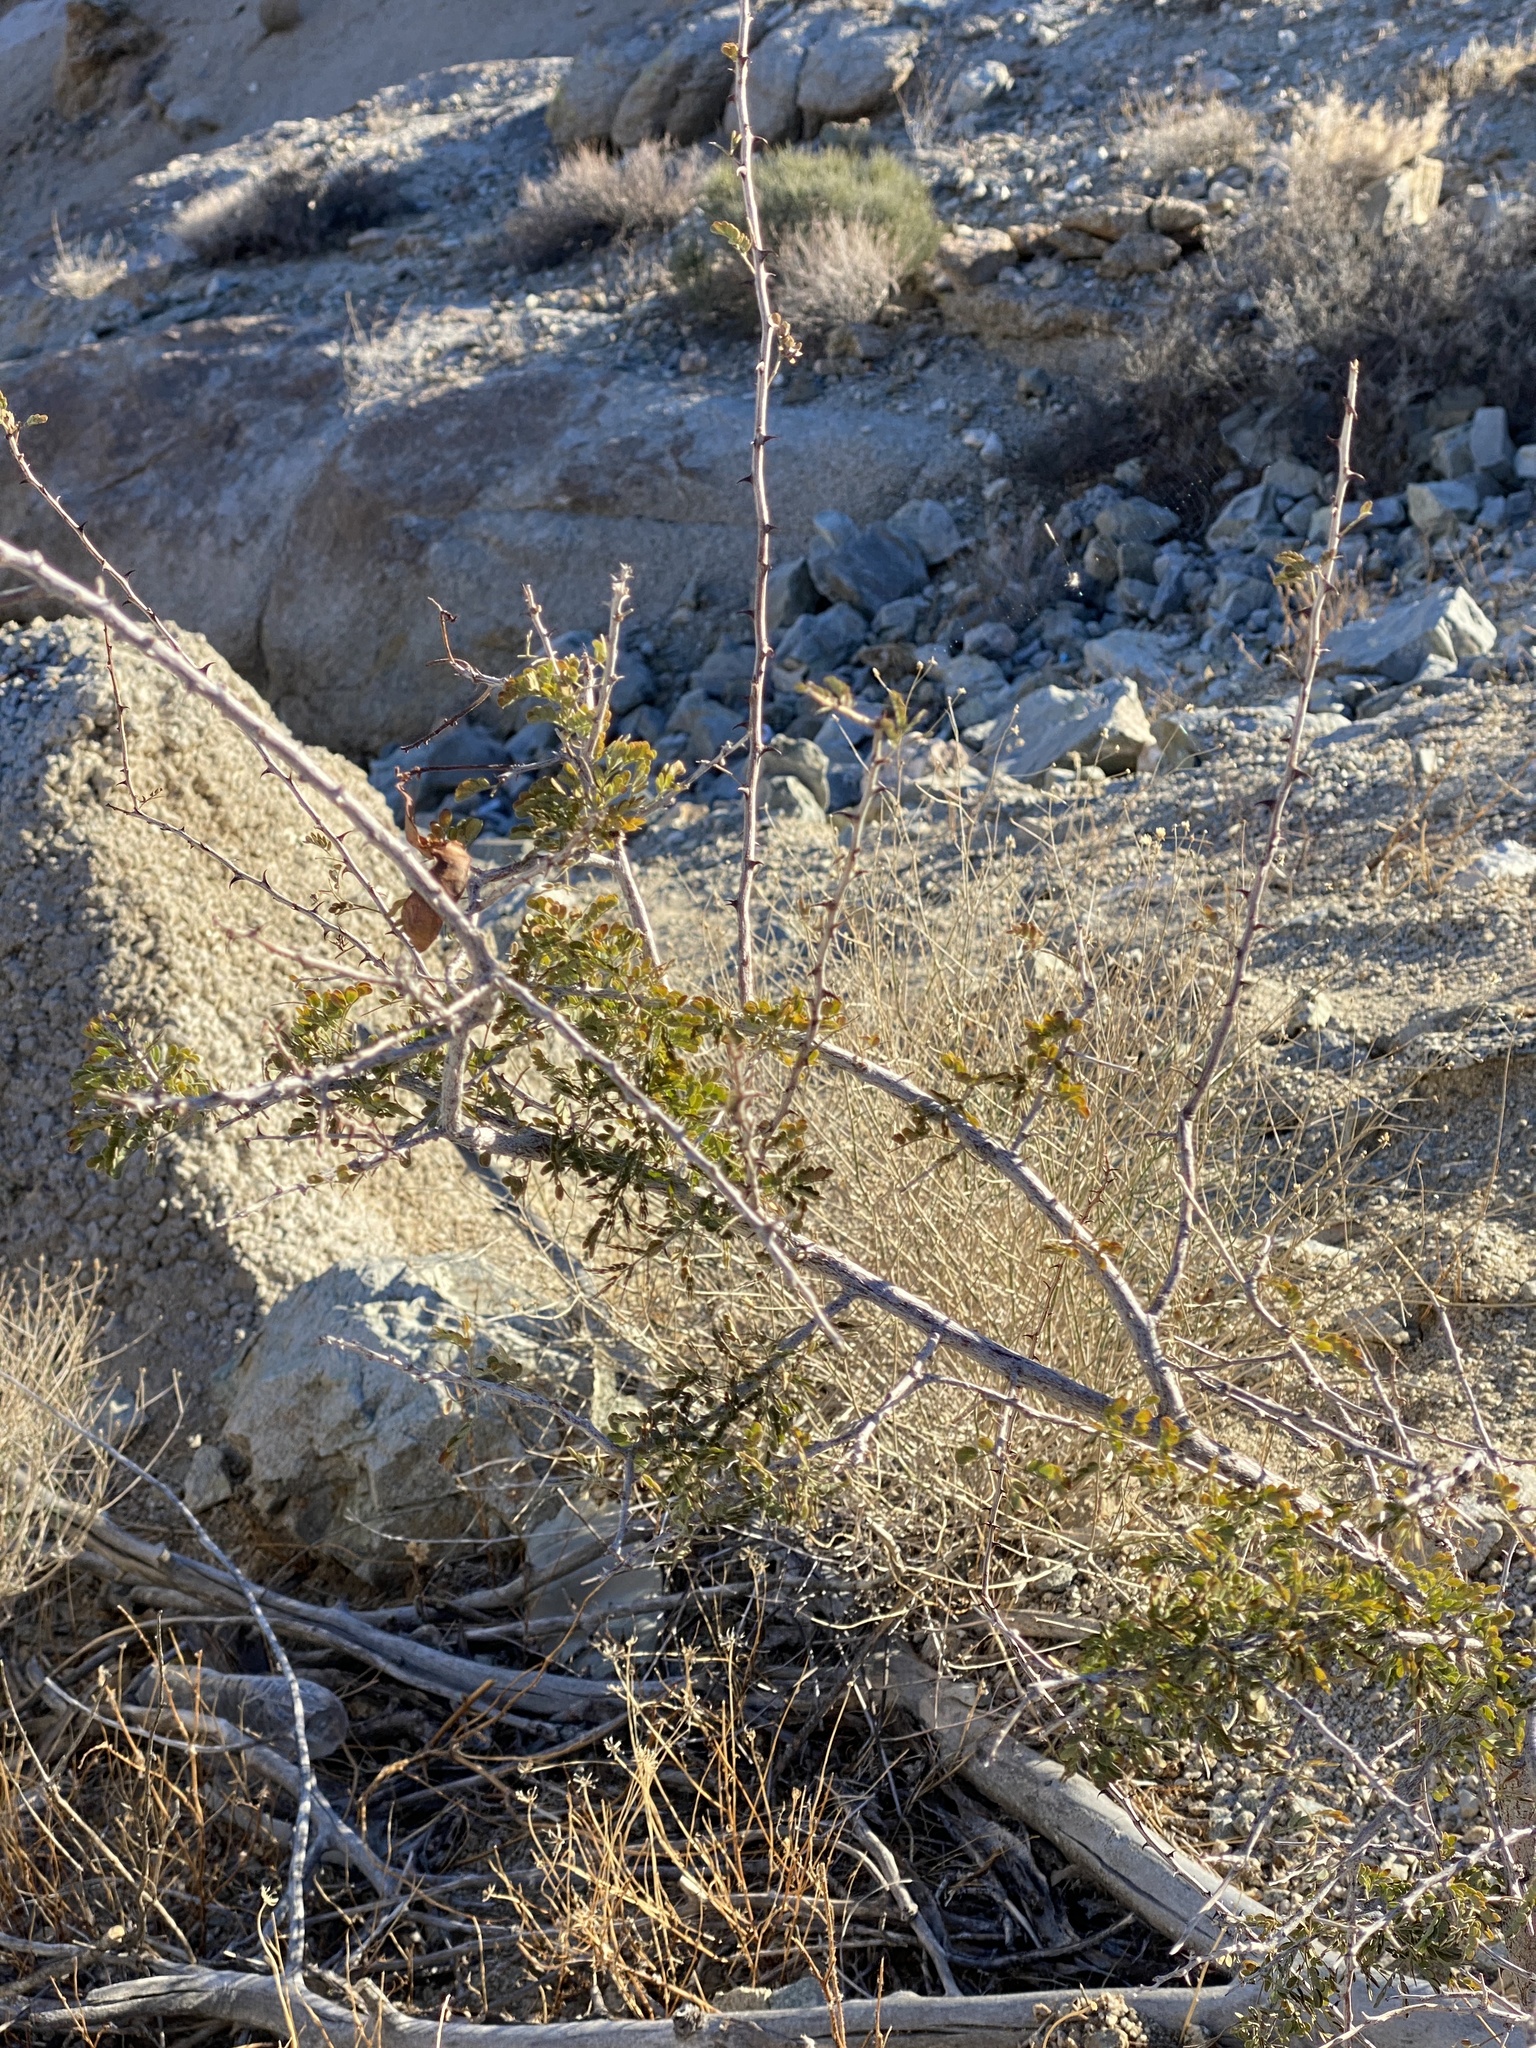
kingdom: Plantae
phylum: Tracheophyta
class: Magnoliopsida
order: Fabales
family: Fabaceae
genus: Senegalia
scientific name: Senegalia greggii
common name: Texas-mimosa
